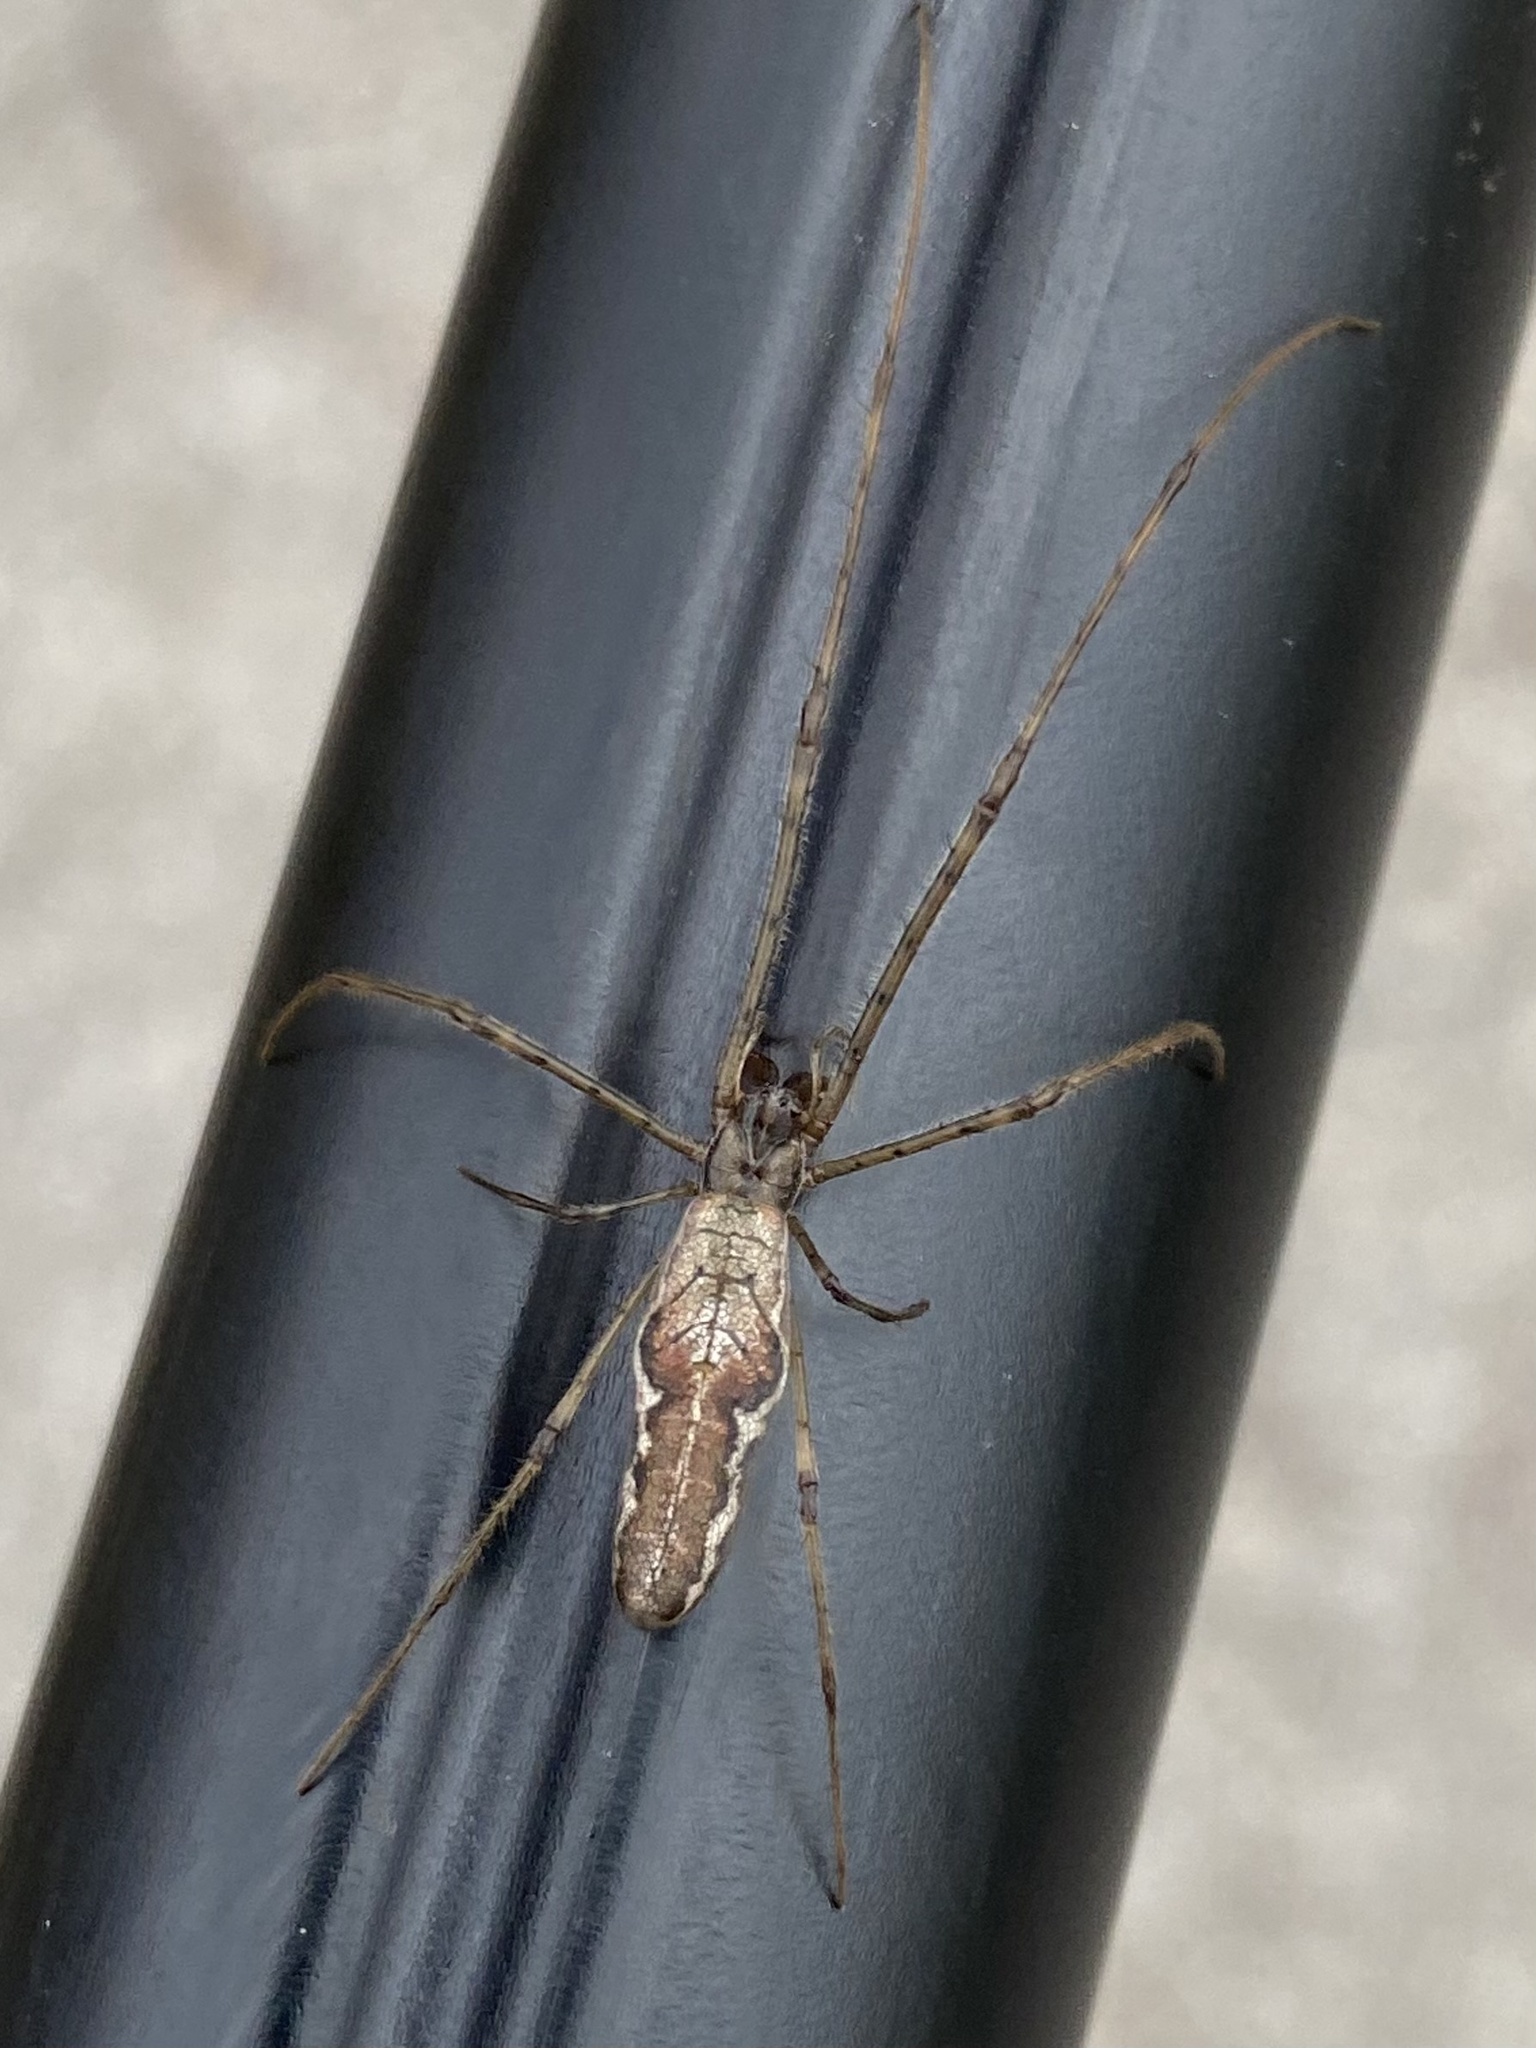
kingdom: Animalia
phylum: Arthropoda
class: Arachnida
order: Araneae
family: Tetragnathidae
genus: Tetragnatha
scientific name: Tetragnatha elongata
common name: Longjawed orb weavers
